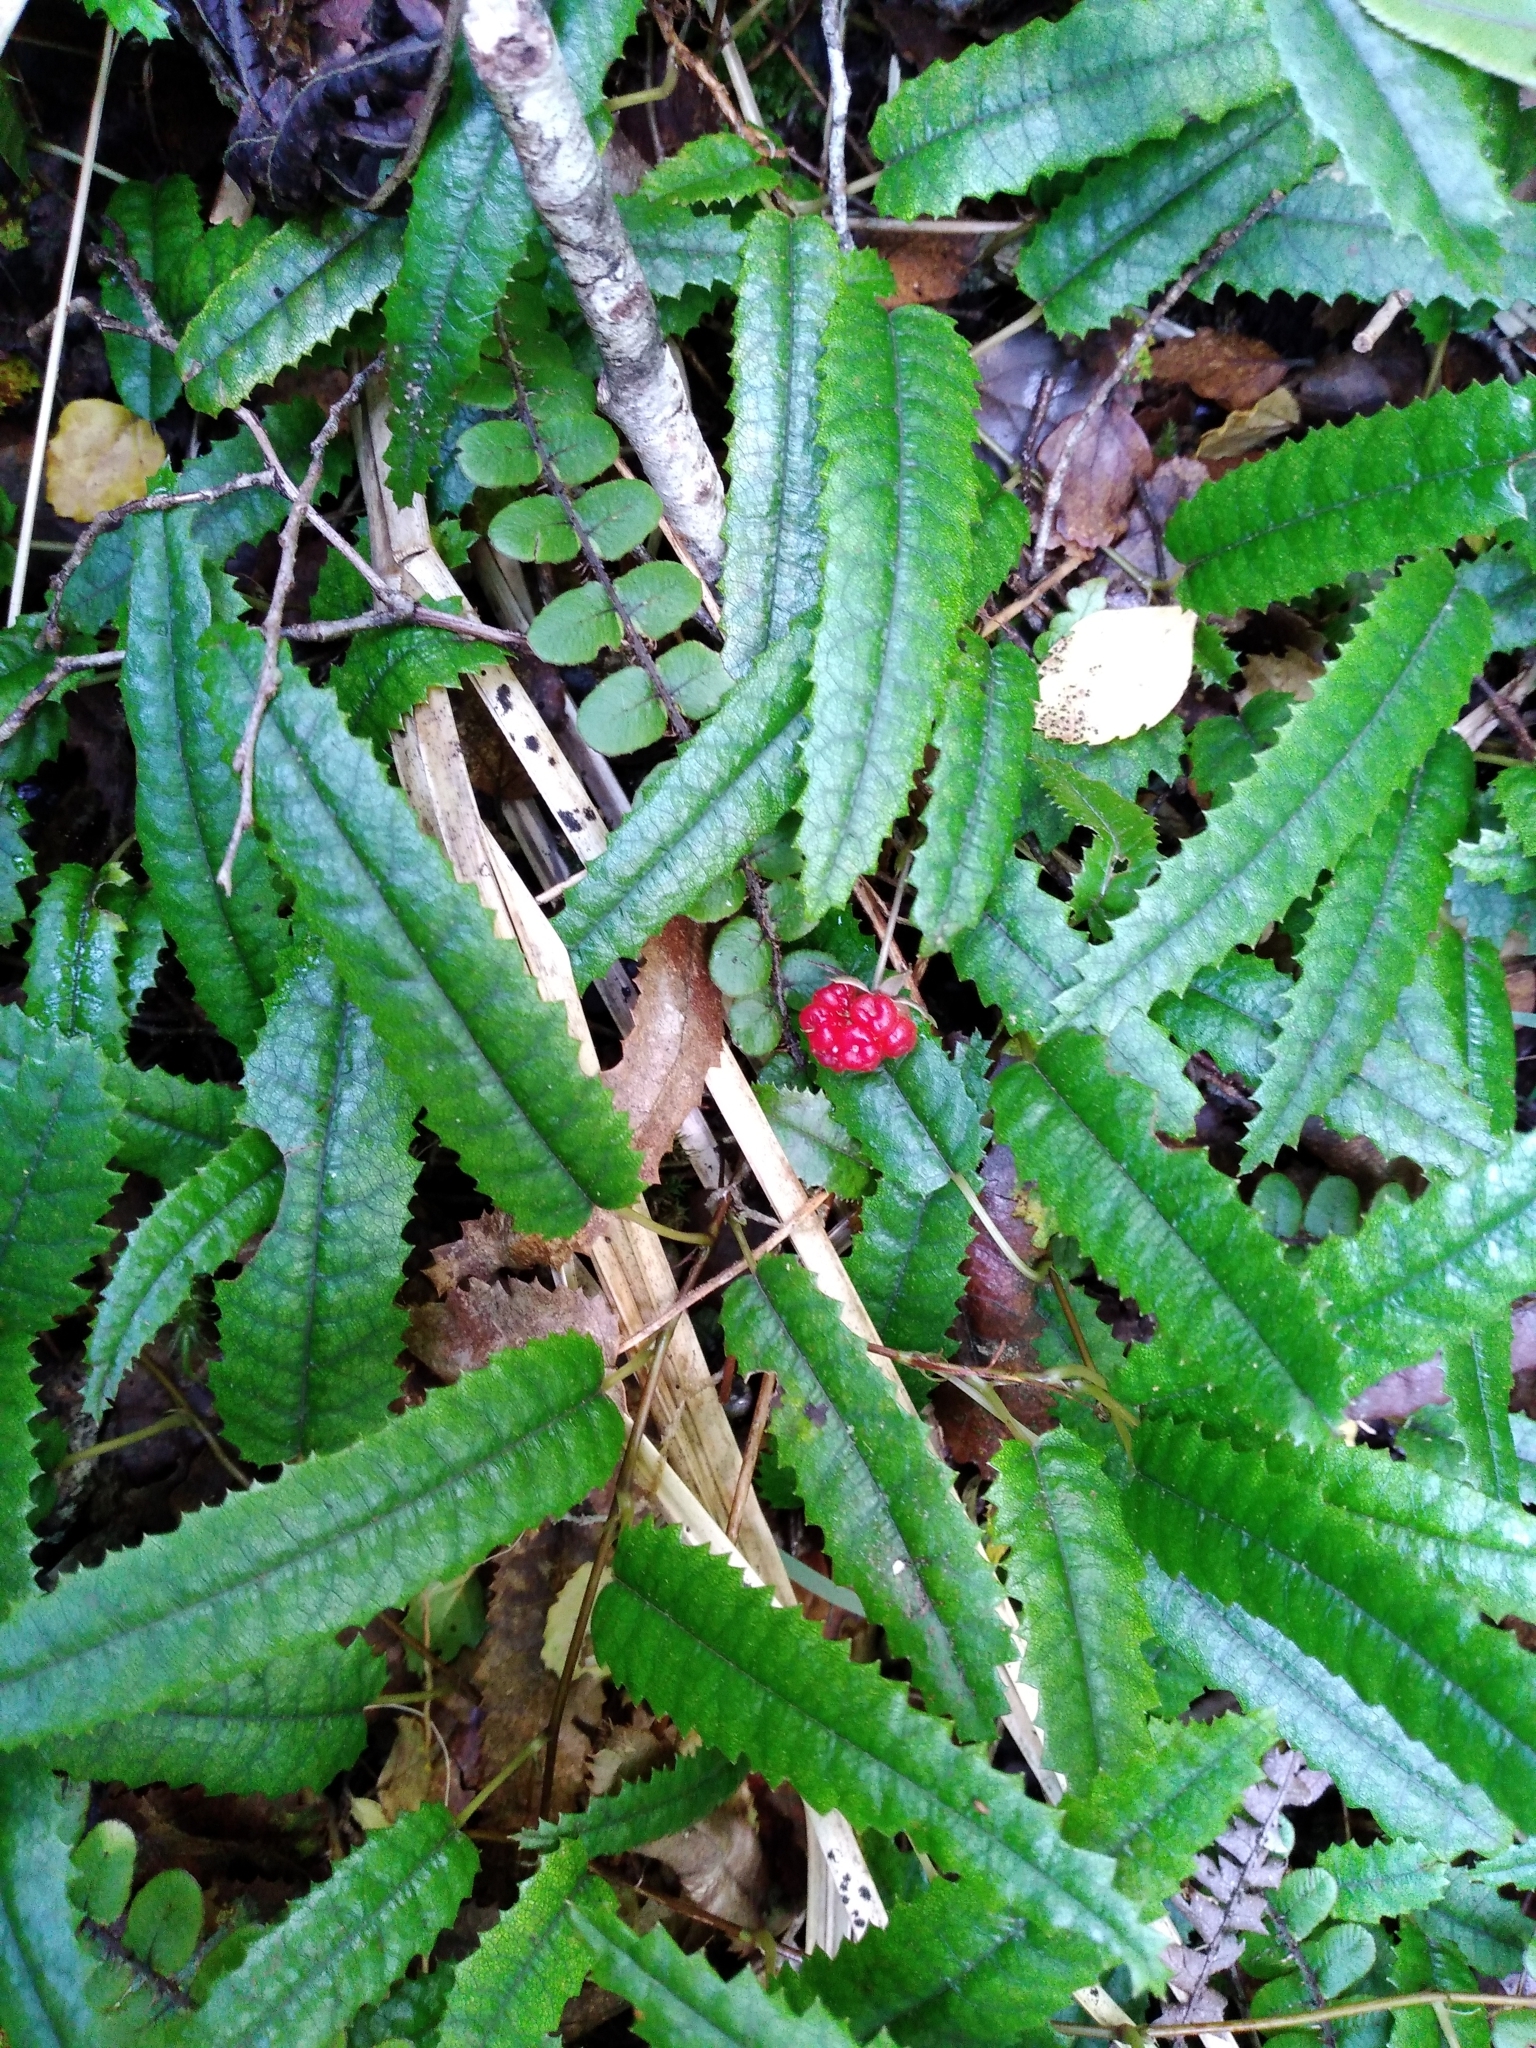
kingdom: Plantae
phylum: Tracheophyta
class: Magnoliopsida
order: Rosales
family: Rosaceae
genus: Rubus
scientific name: Rubus parvus
